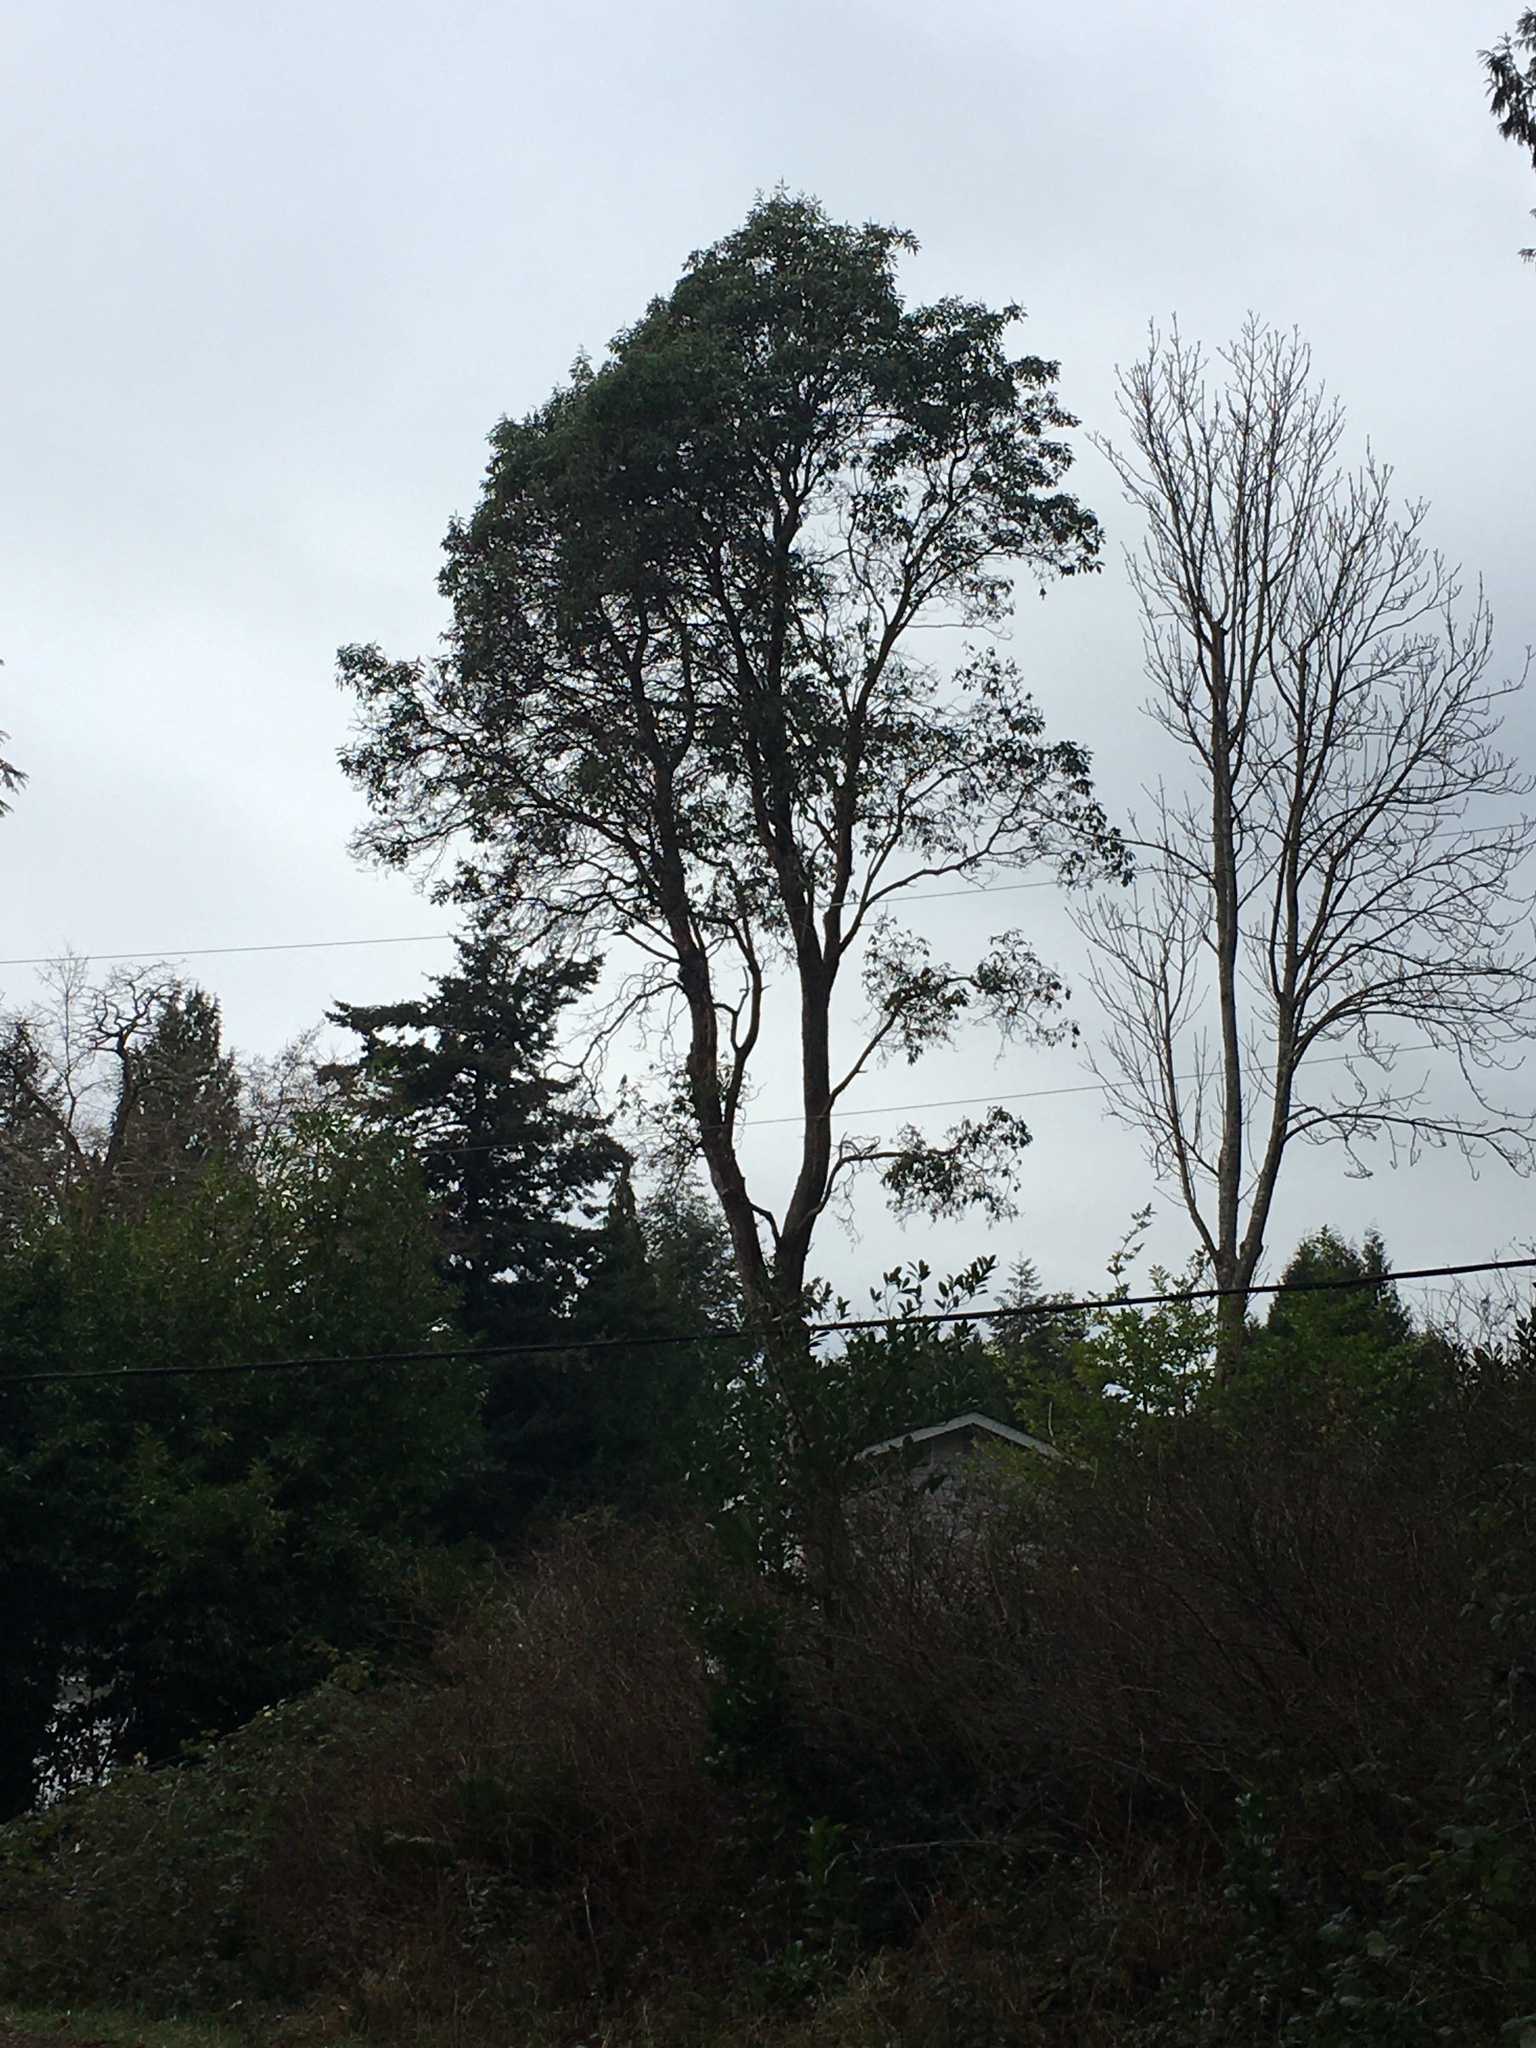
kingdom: Plantae
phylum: Tracheophyta
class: Magnoliopsida
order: Ericales
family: Ericaceae
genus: Arbutus
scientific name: Arbutus menziesii
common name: Pacific madrone
